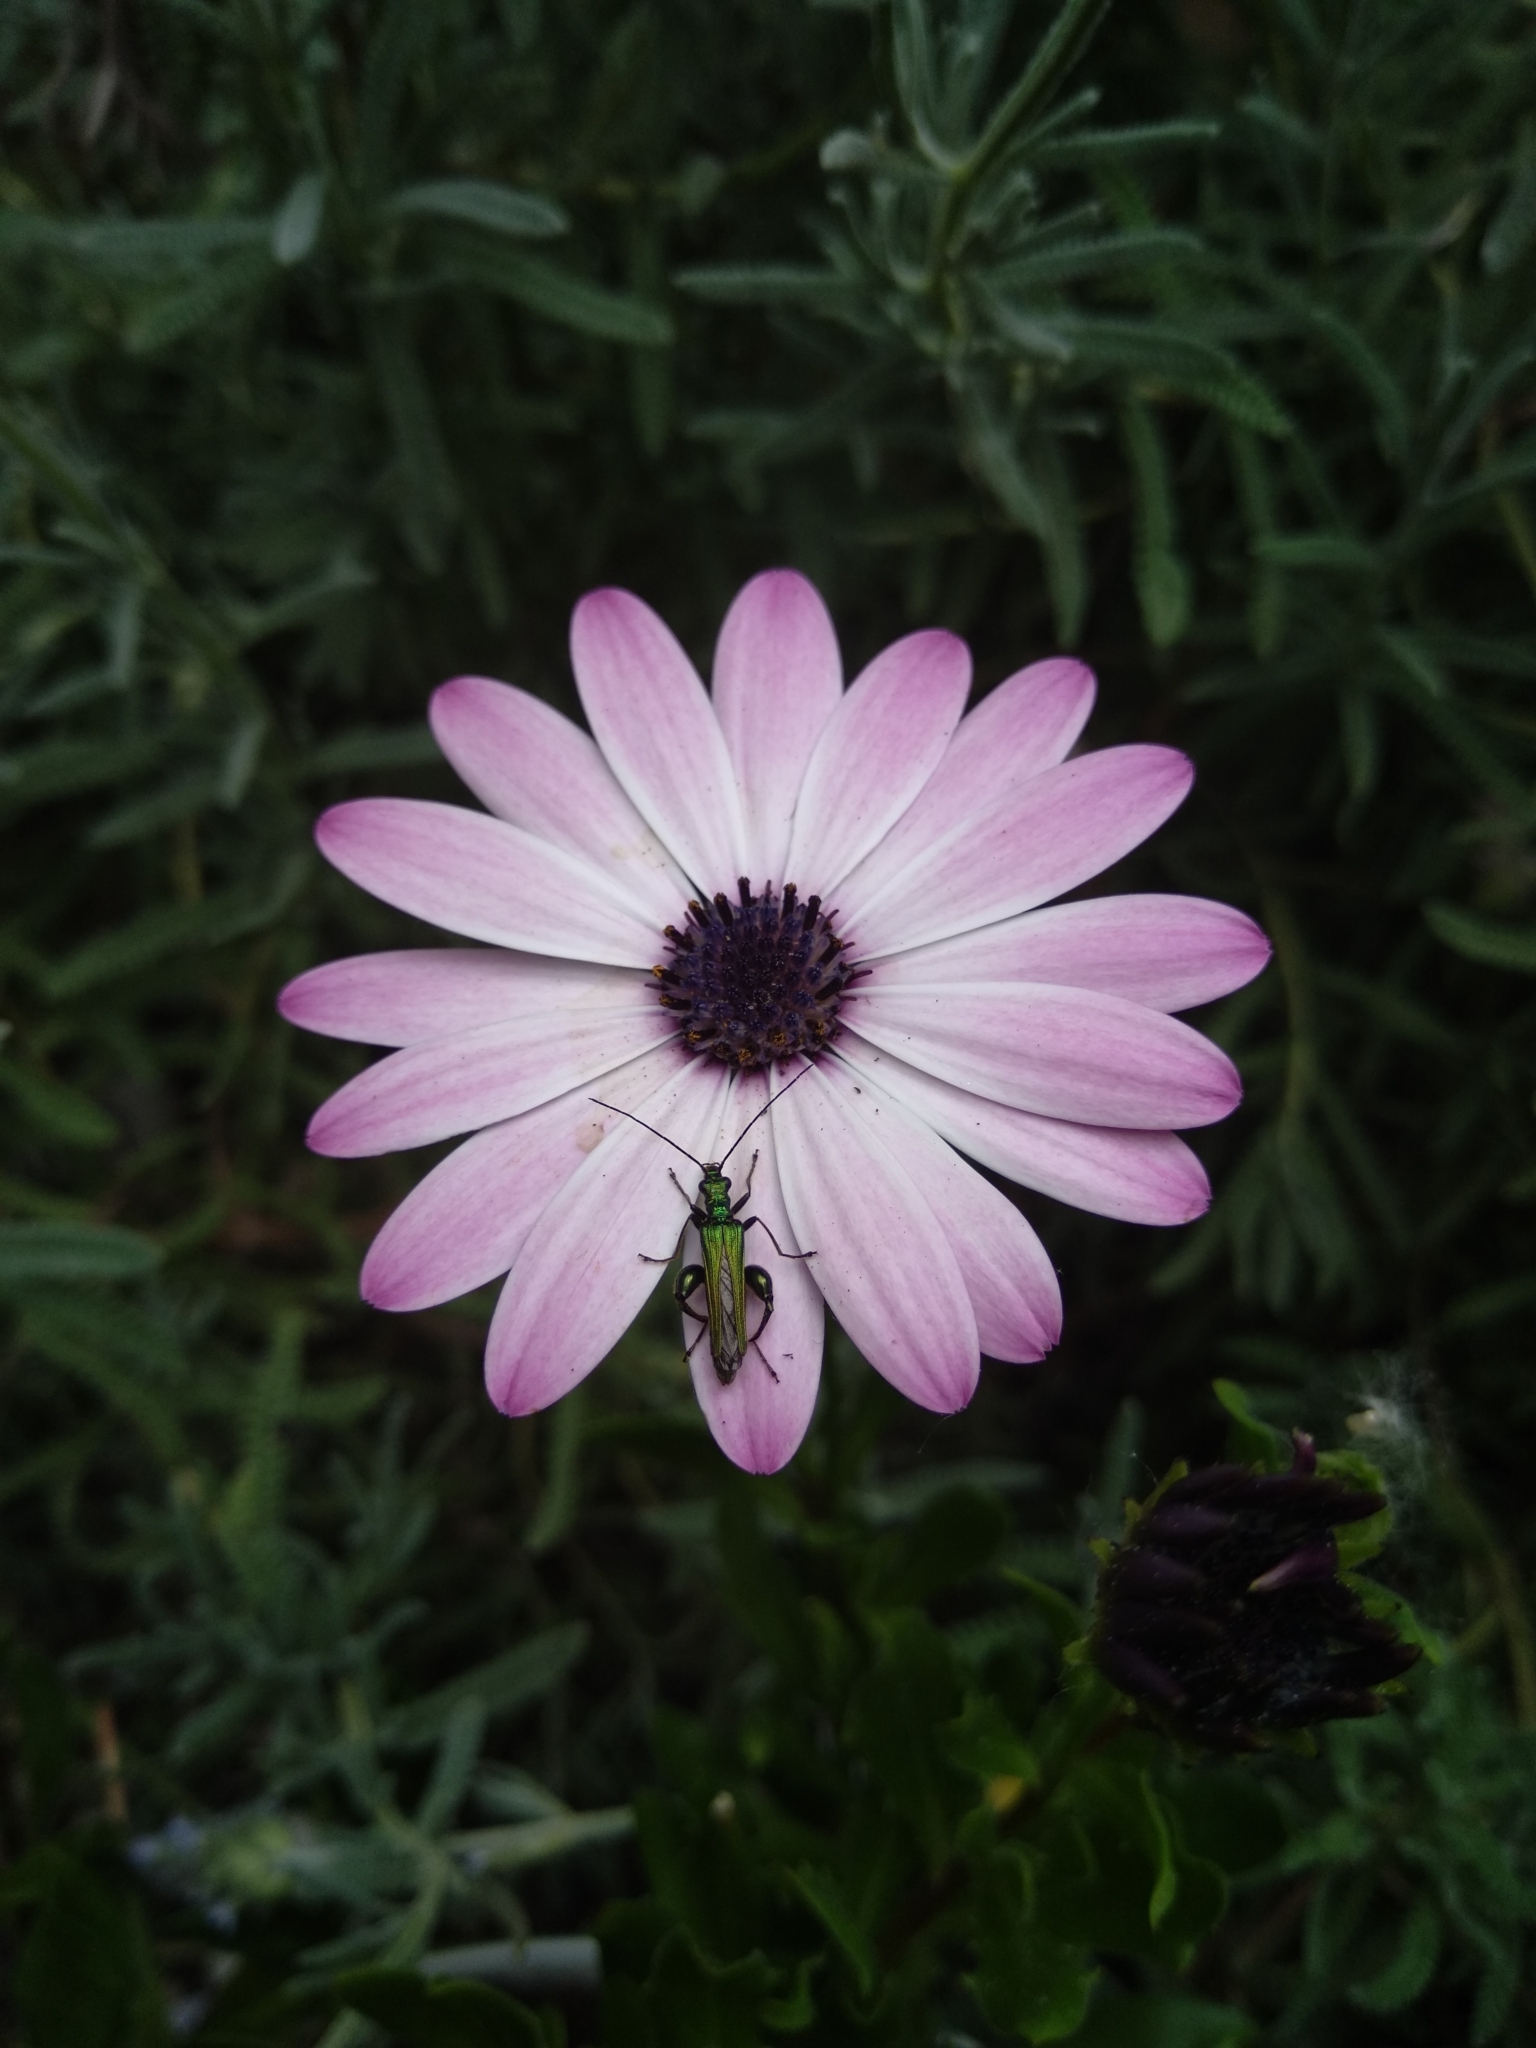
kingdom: Animalia
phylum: Arthropoda
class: Insecta
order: Coleoptera
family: Oedemeridae
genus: Oedemera
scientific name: Oedemera nobilis
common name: Swollen-thighed beetle
